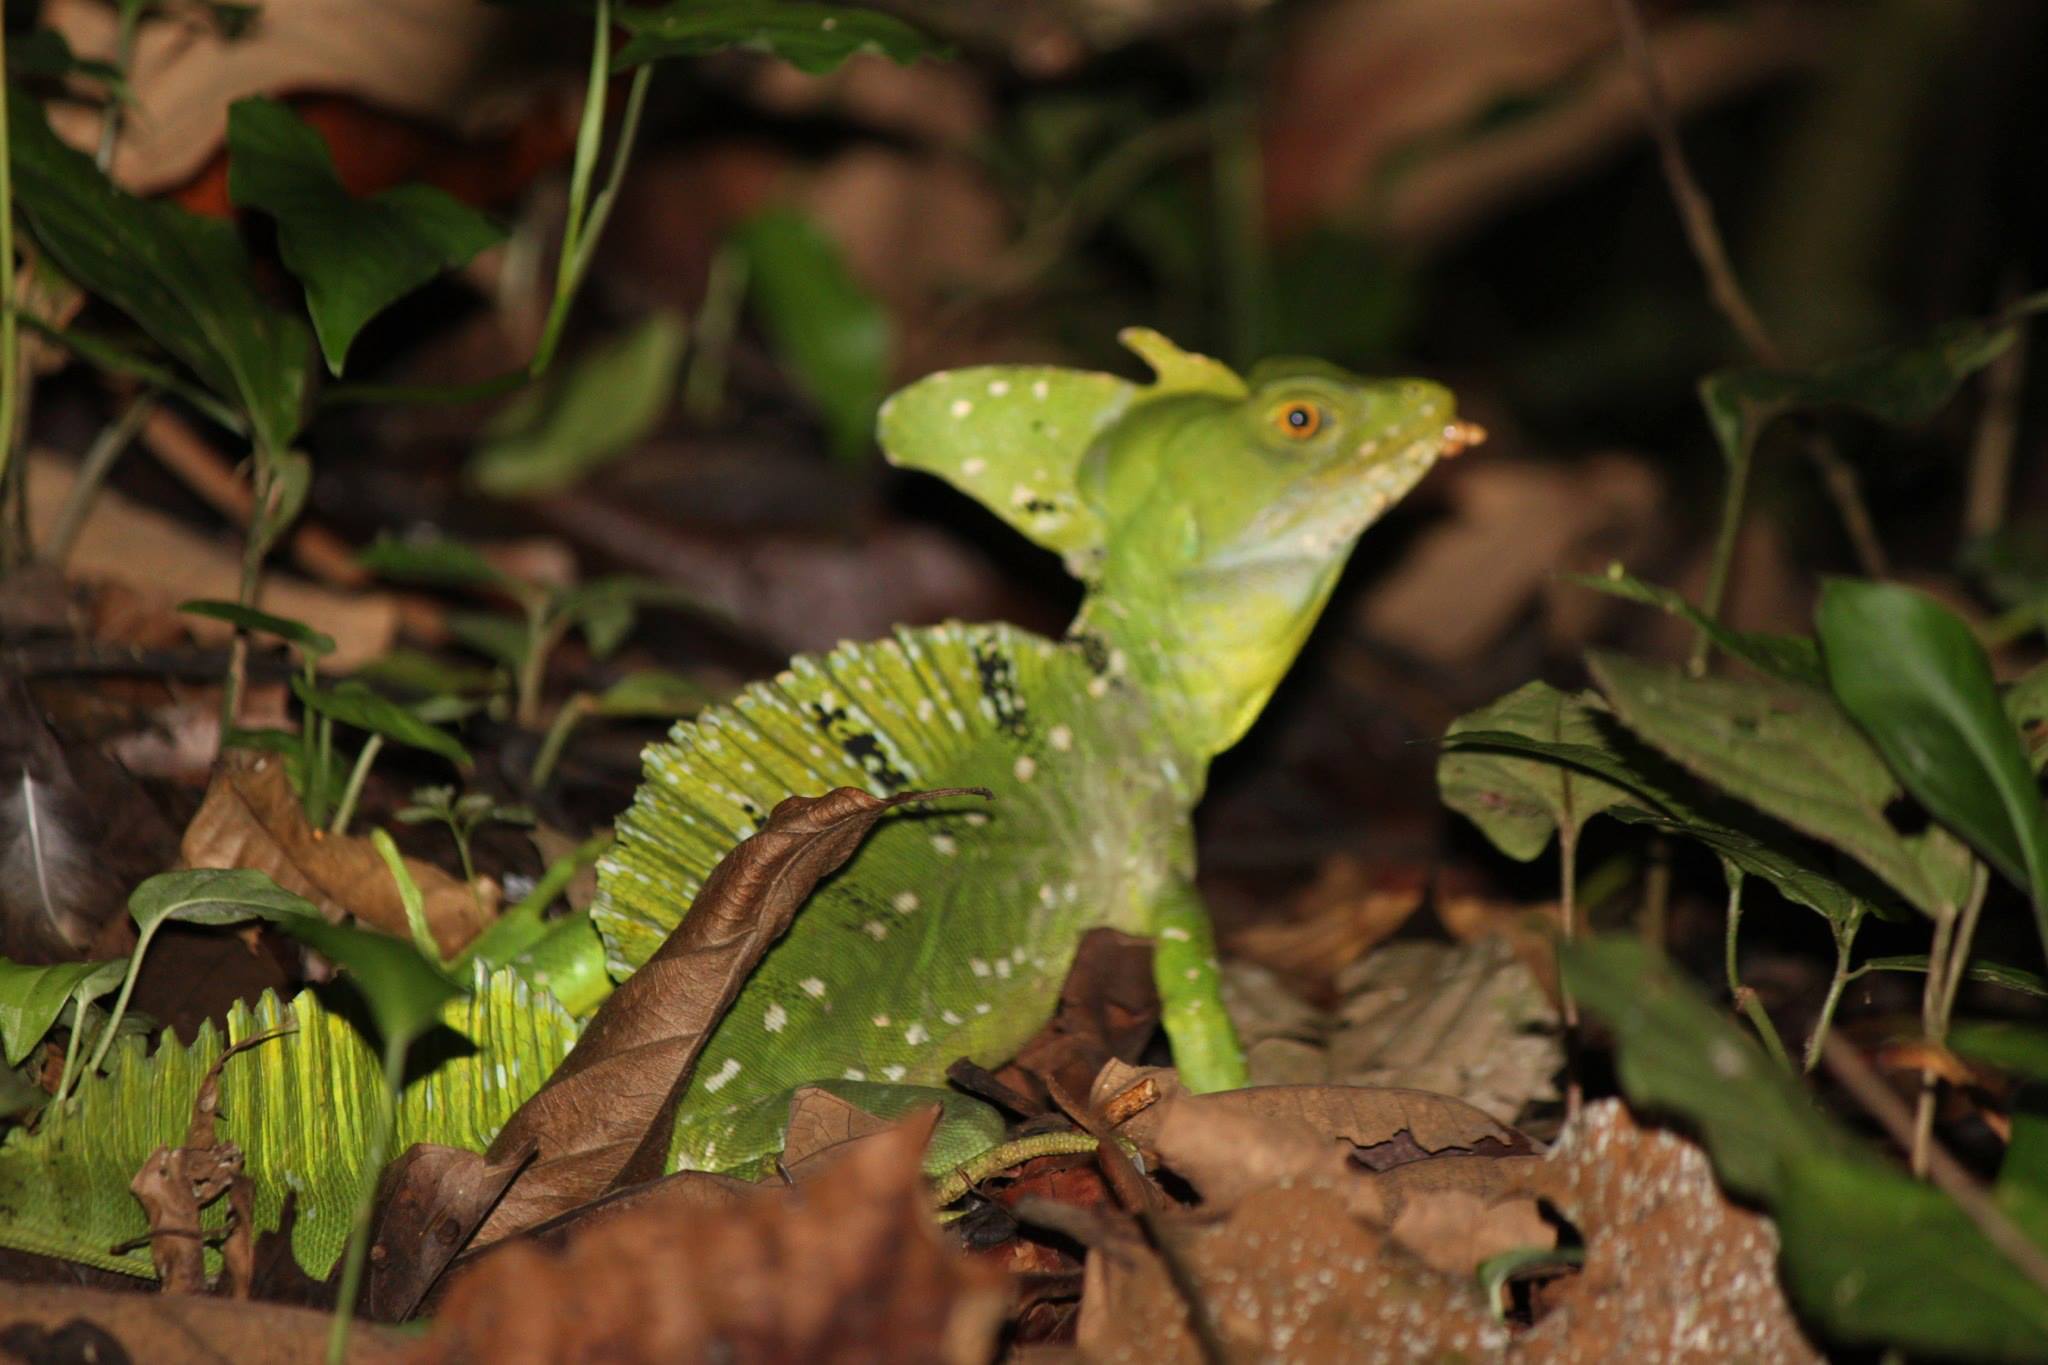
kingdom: Animalia
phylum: Chordata
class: Squamata
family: Corytophanidae
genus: Basiliscus
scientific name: Basiliscus plumifrons
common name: Green basilisk
